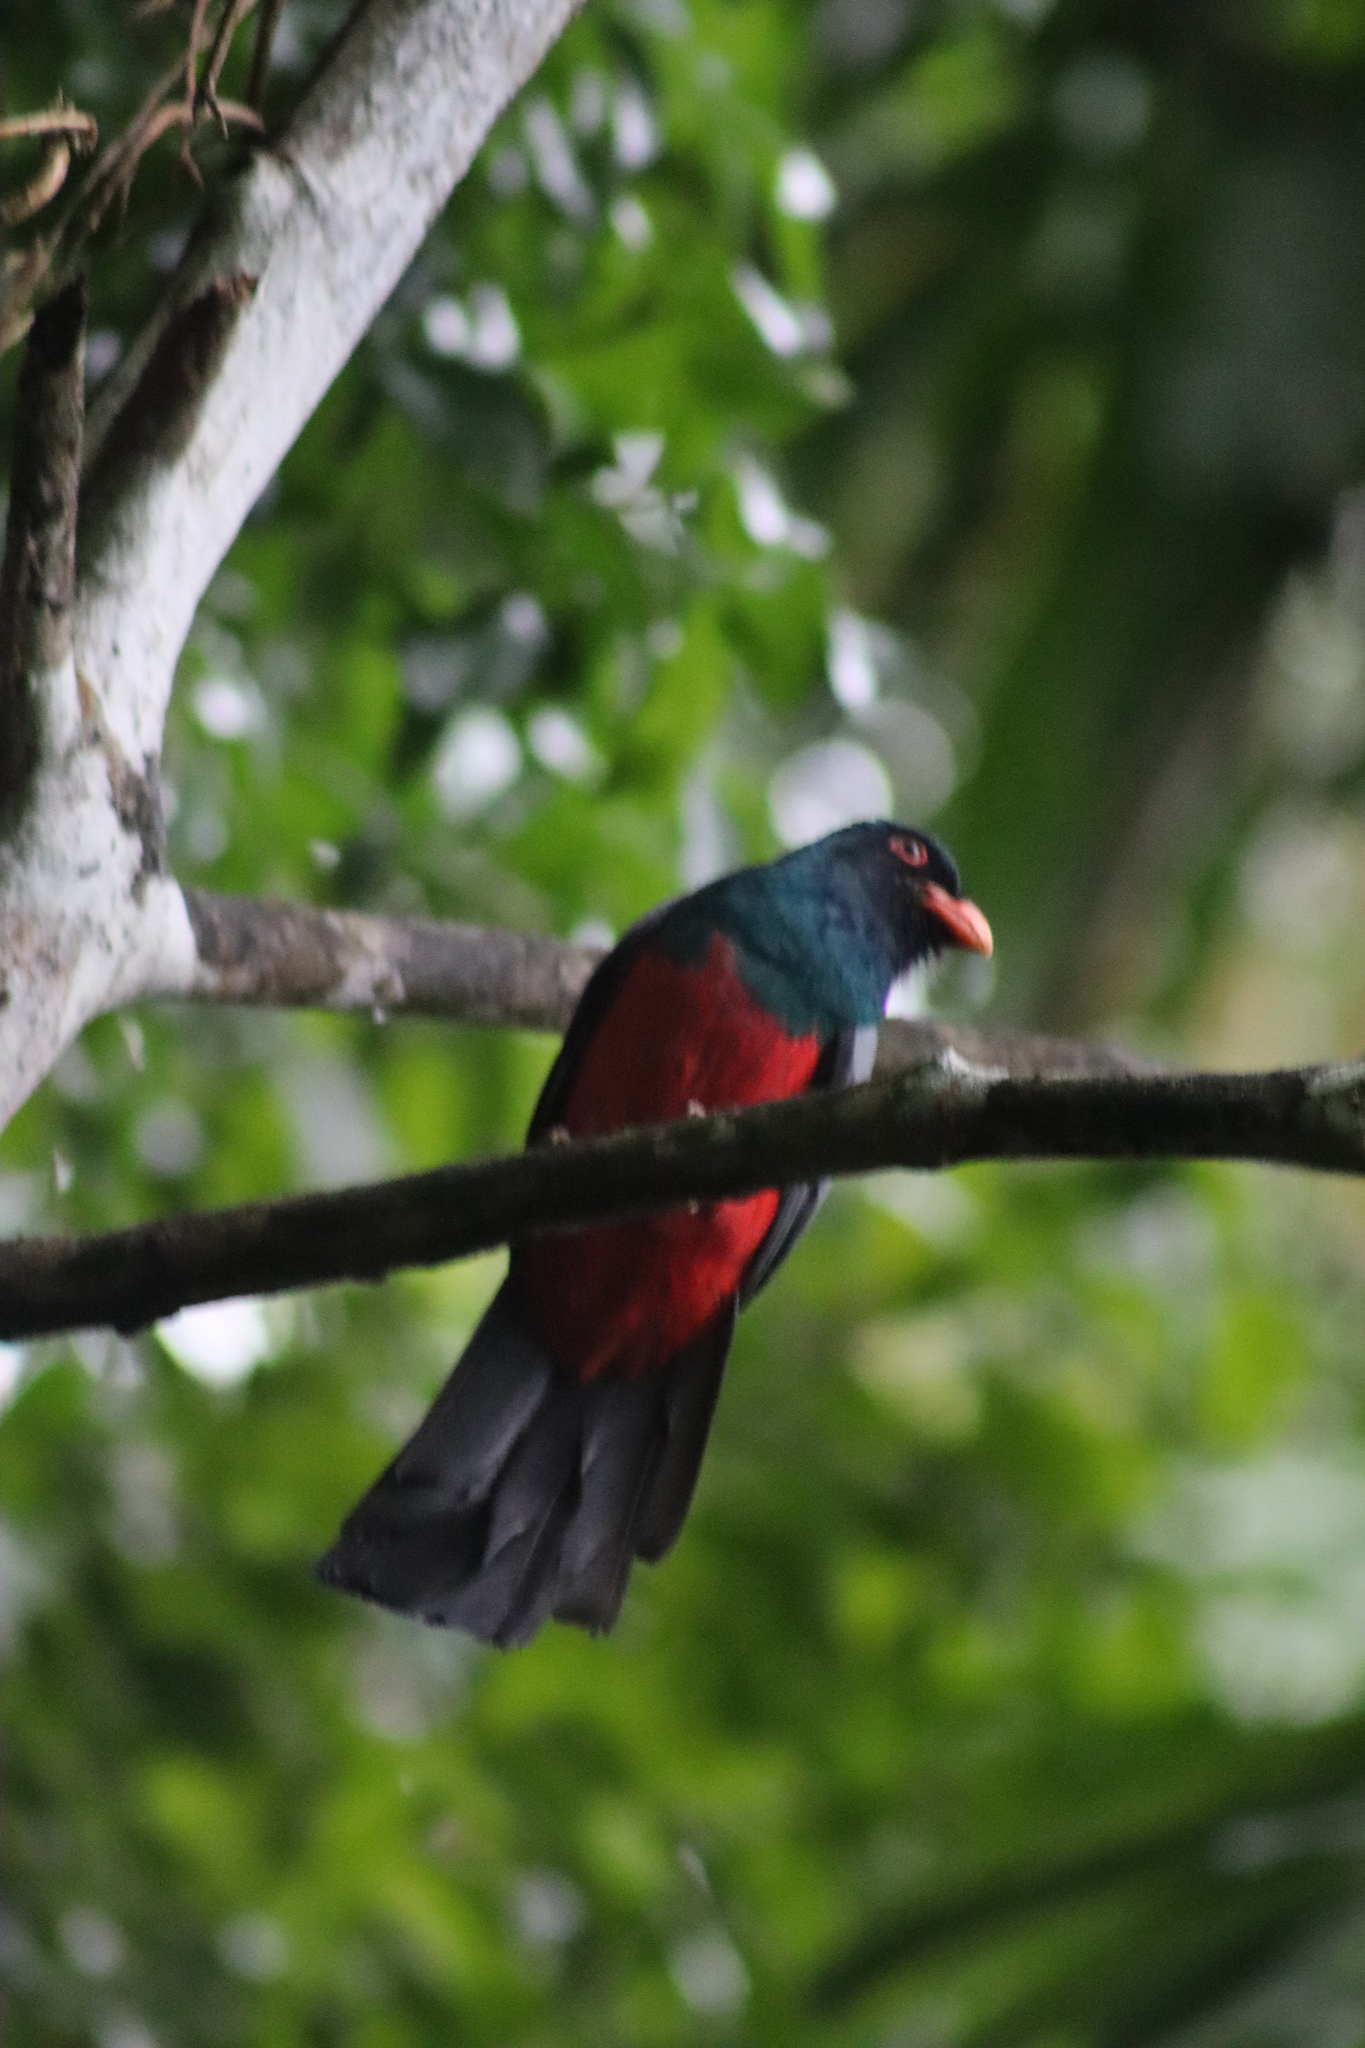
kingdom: Animalia
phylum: Chordata
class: Aves
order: Trogoniformes
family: Trogonidae
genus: Trogon
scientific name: Trogon massena
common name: Slaty-tailed trogon
